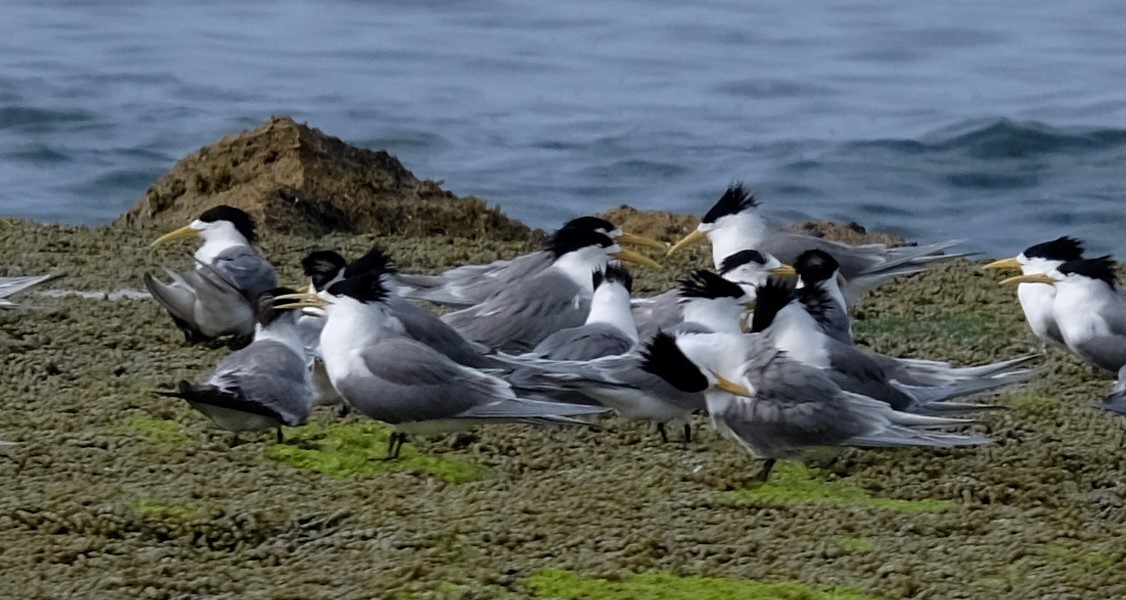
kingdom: Animalia
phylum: Chordata
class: Aves
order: Charadriiformes
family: Laridae
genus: Thalasseus
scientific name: Thalasseus bergii
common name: Greater crested tern
